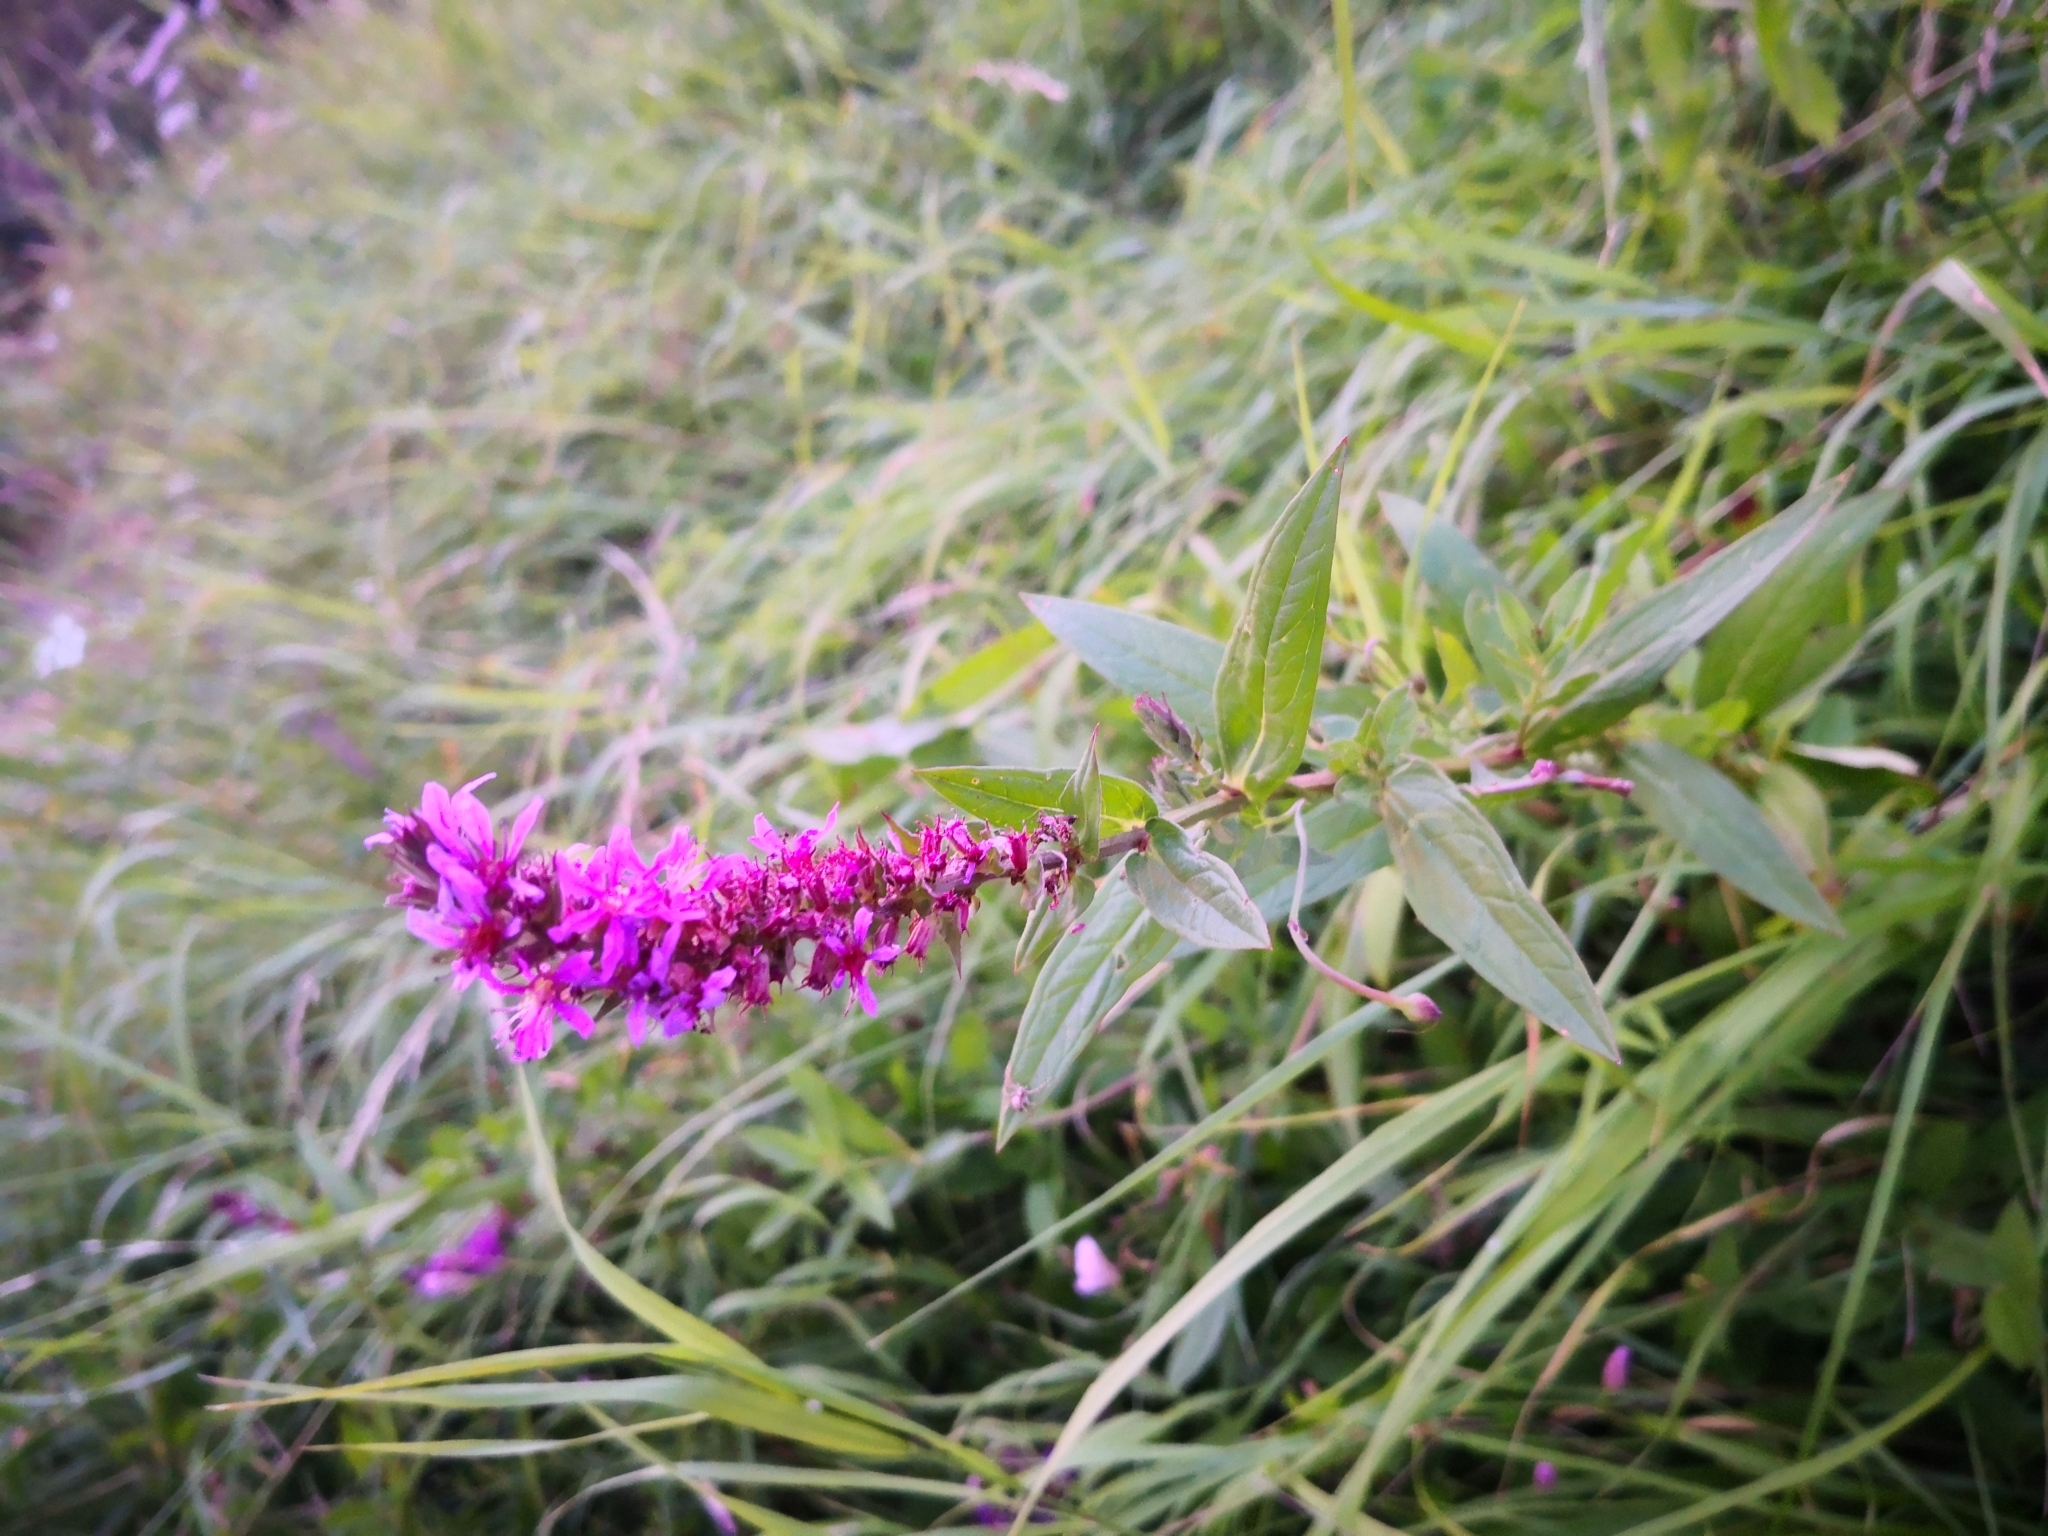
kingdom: Plantae
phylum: Tracheophyta
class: Magnoliopsida
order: Myrtales
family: Lythraceae
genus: Lythrum
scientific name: Lythrum salicaria
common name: Purple loosestrife
